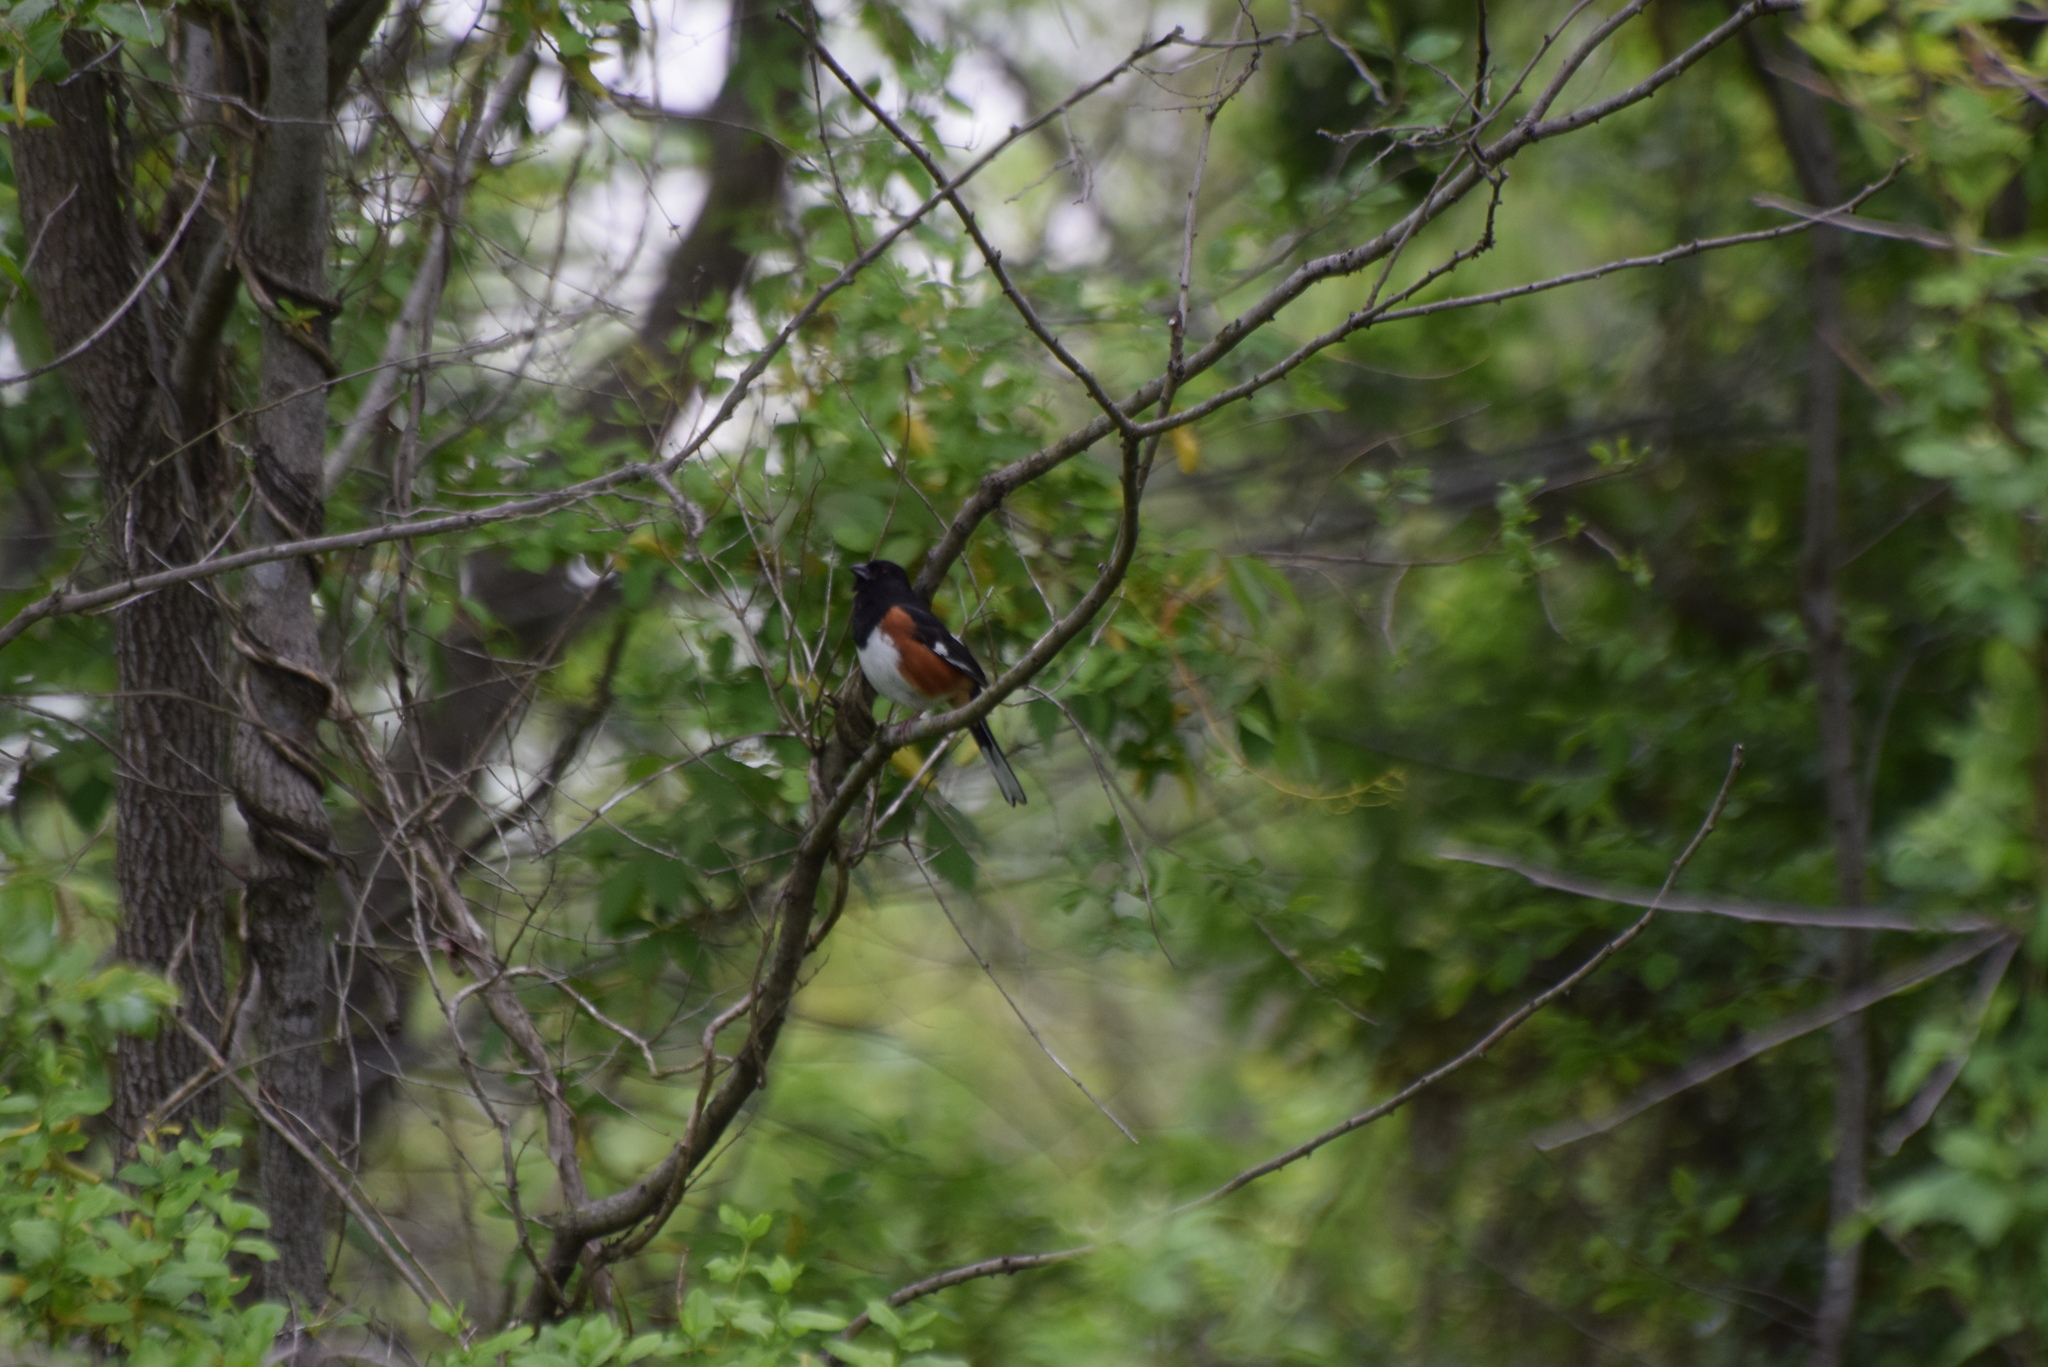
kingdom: Animalia
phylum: Chordata
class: Aves
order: Passeriformes
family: Passerellidae
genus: Pipilo
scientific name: Pipilo erythrophthalmus
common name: Eastern towhee
